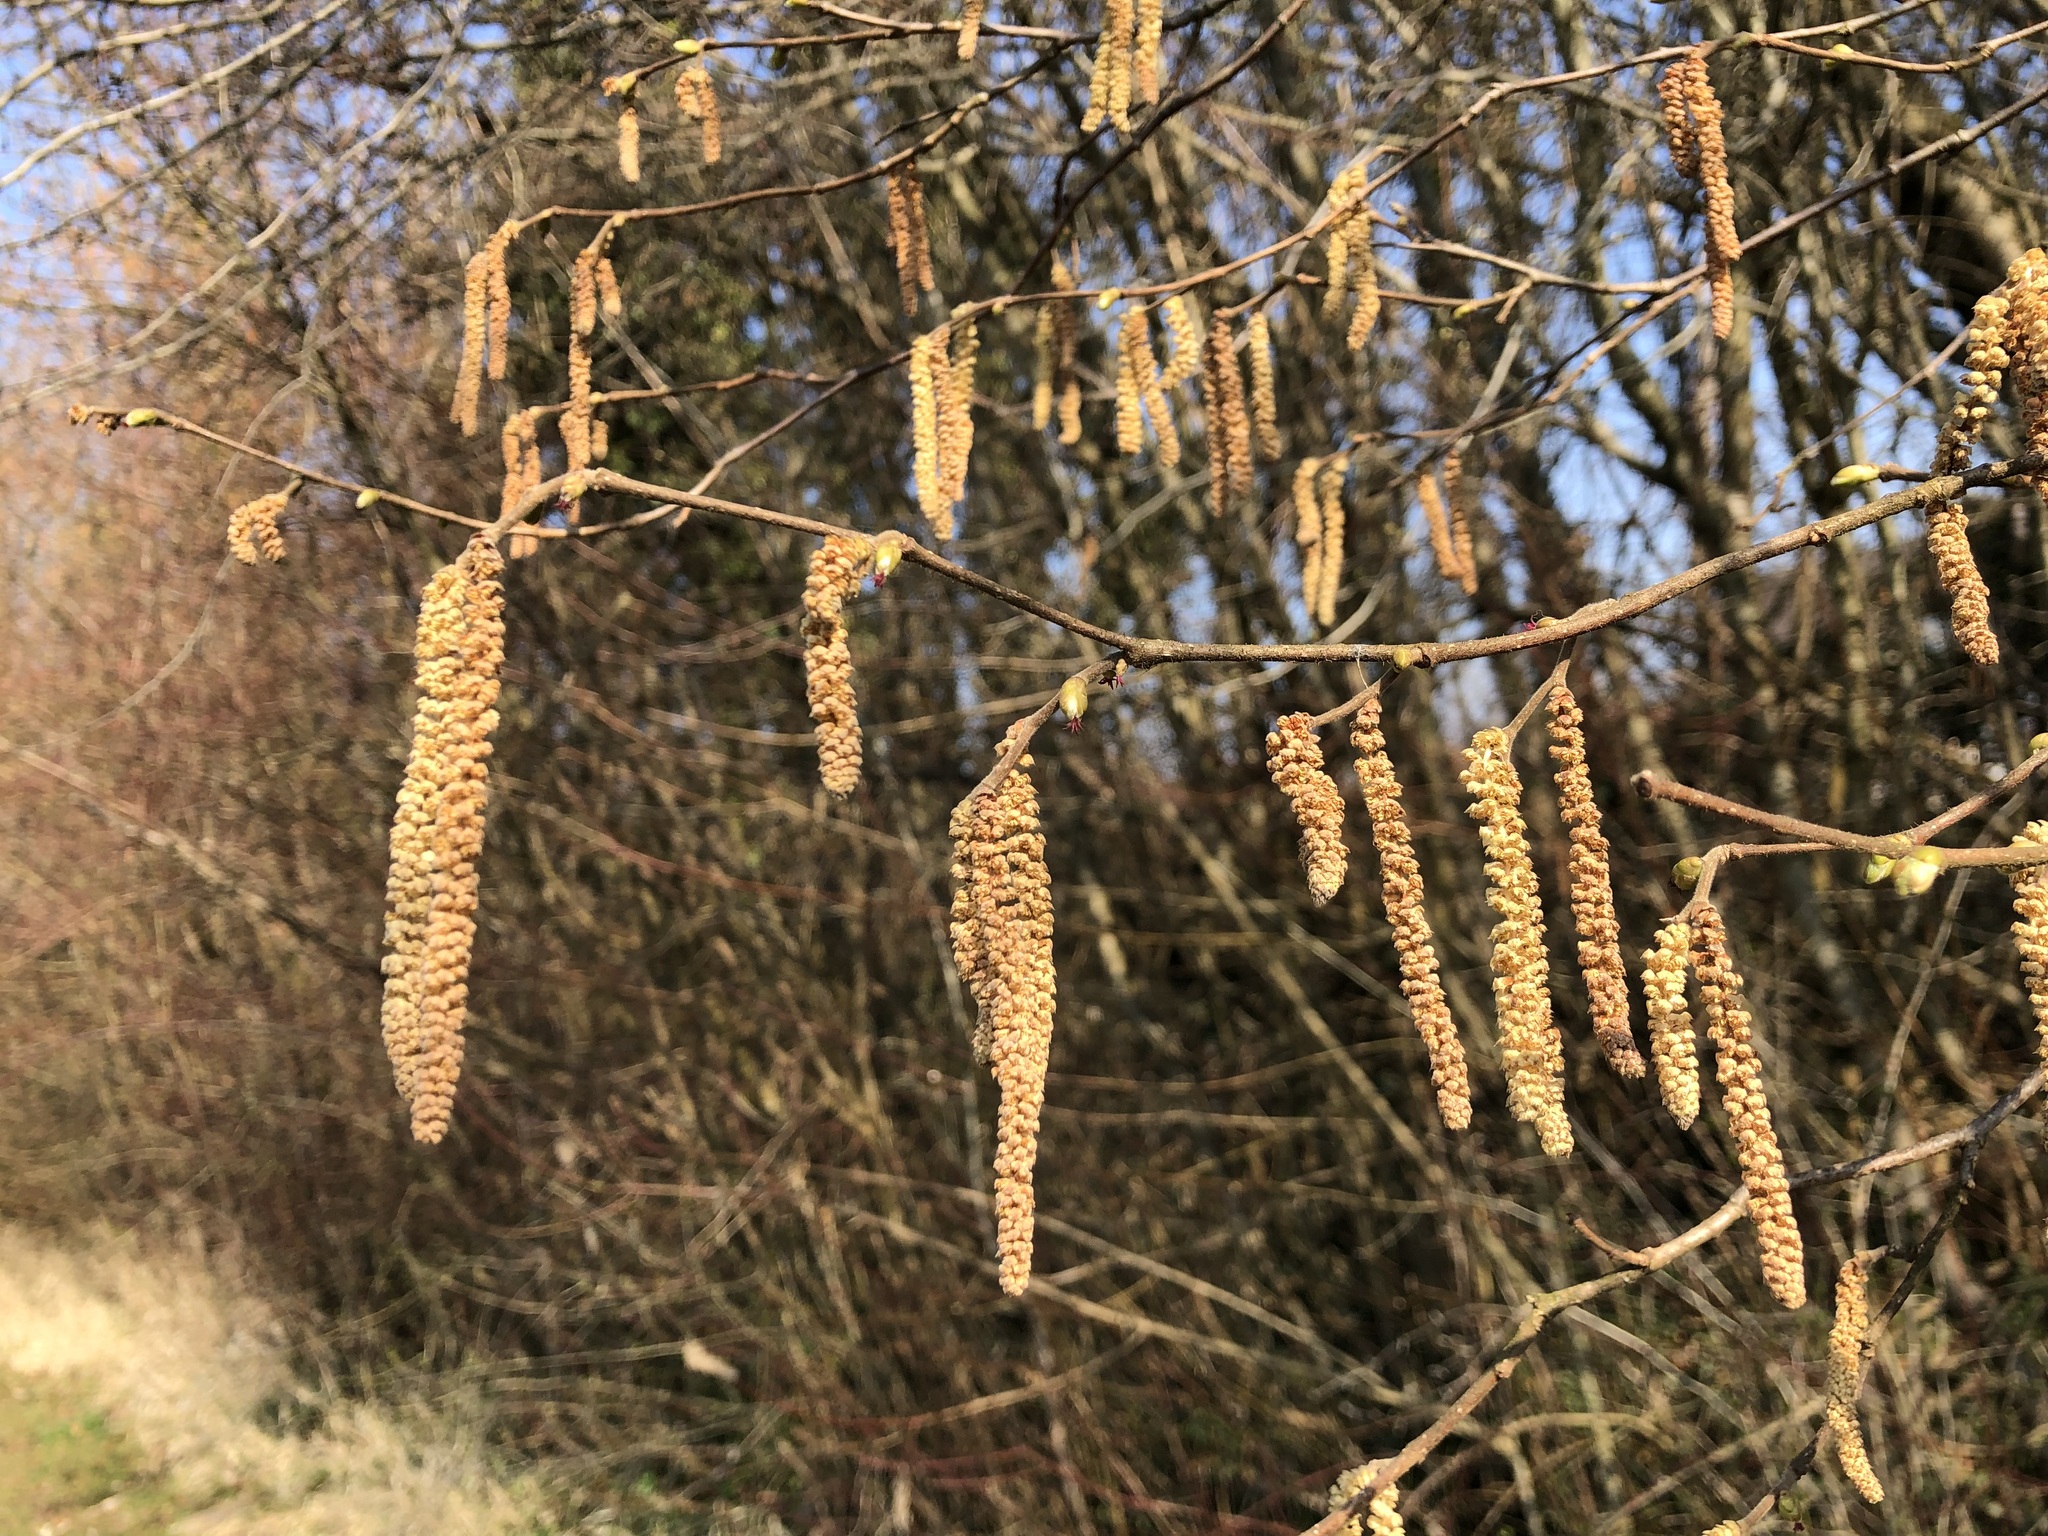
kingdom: Plantae
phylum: Tracheophyta
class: Magnoliopsida
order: Fagales
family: Betulaceae
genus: Corylus
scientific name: Corylus avellana
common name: European hazel
